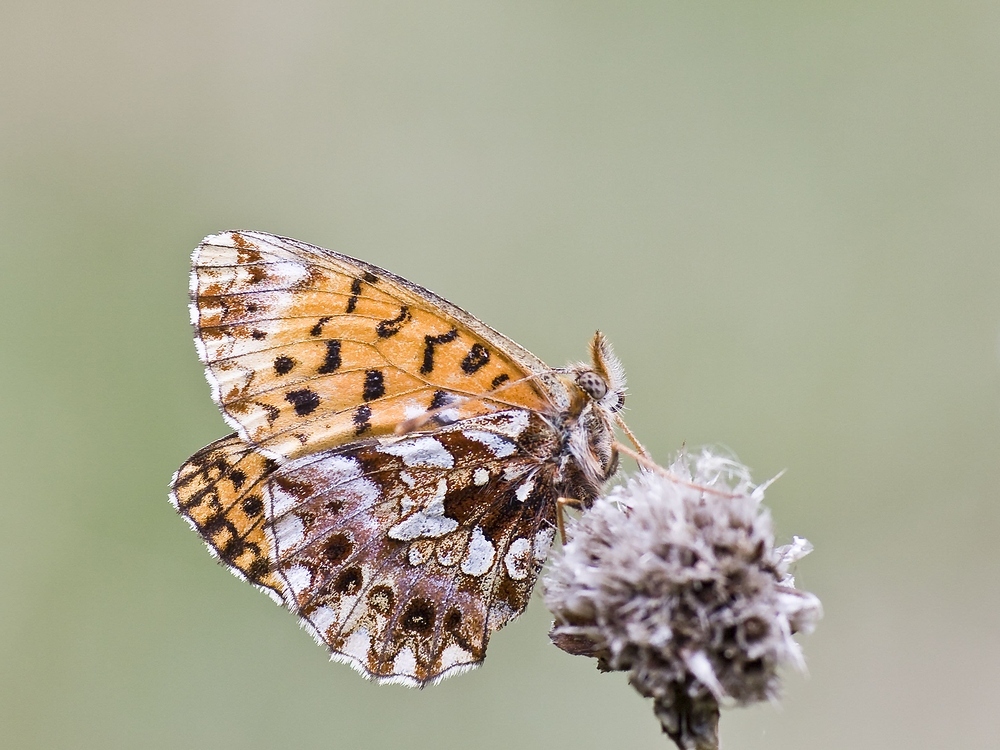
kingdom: Animalia
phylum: Arthropoda
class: Insecta
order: Lepidoptera
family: Nymphalidae
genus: Boloria
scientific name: Boloria dia
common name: Weaver's fritillary
